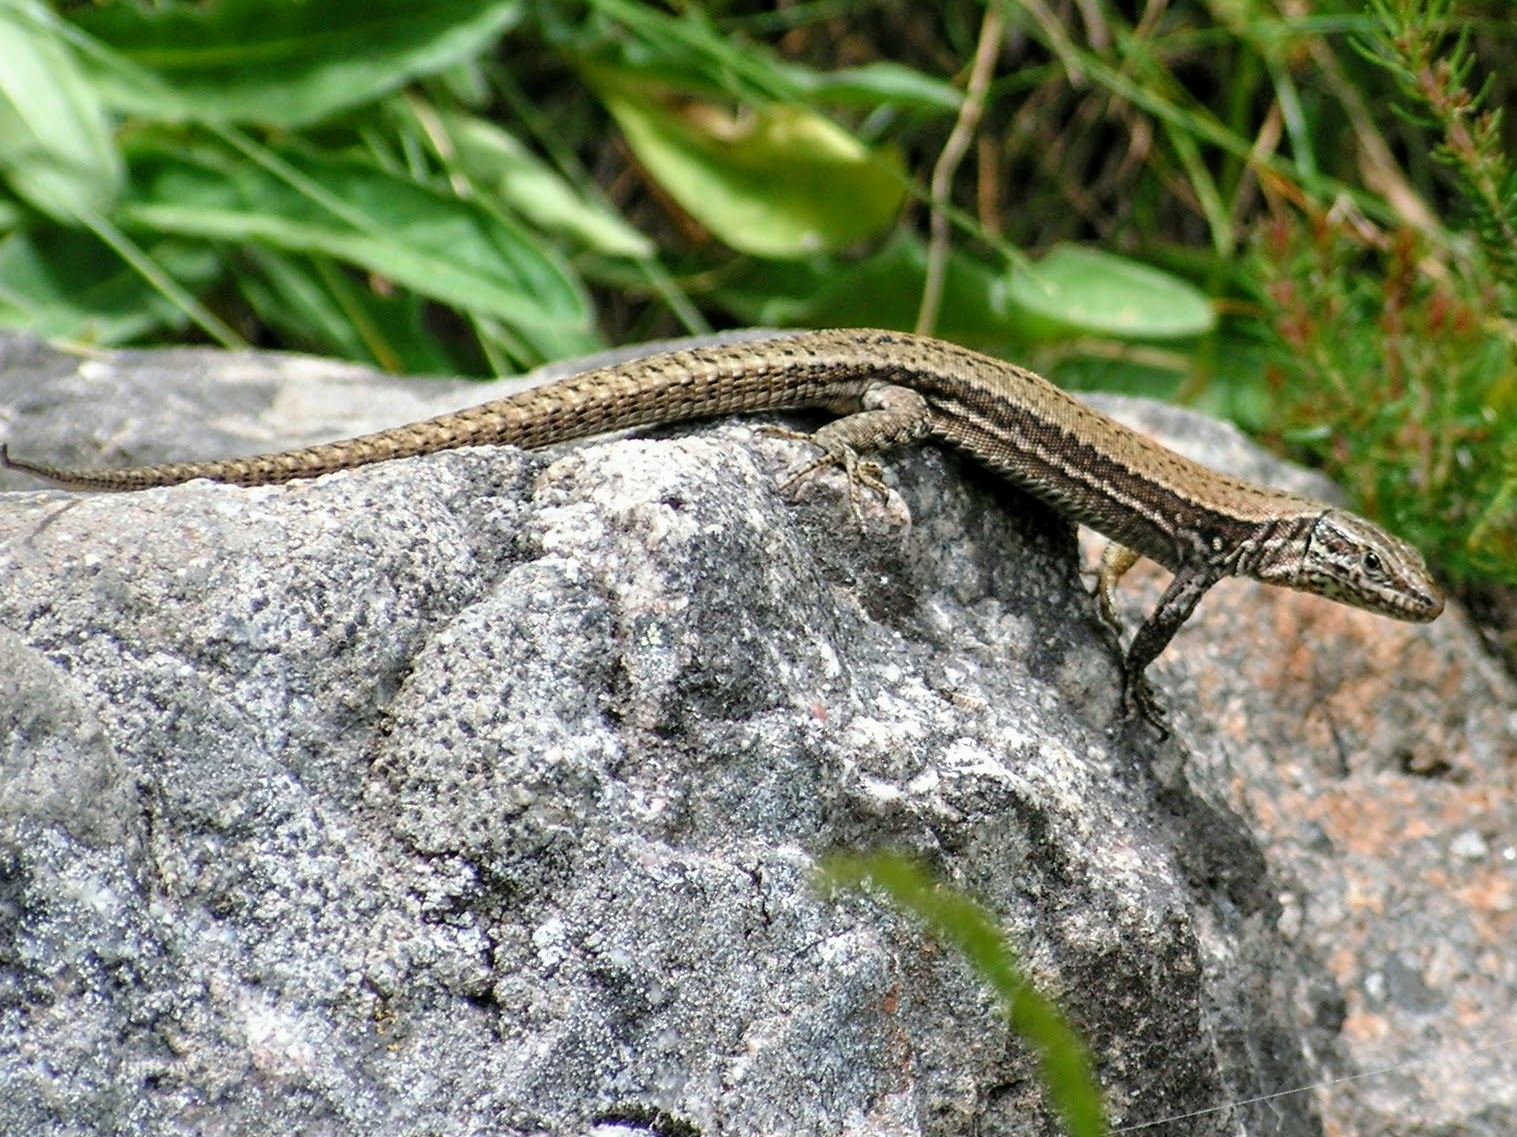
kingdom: Animalia
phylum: Chordata
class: Squamata
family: Lacertidae
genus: Podarcis
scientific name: Podarcis muralis
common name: Common wall lizard
